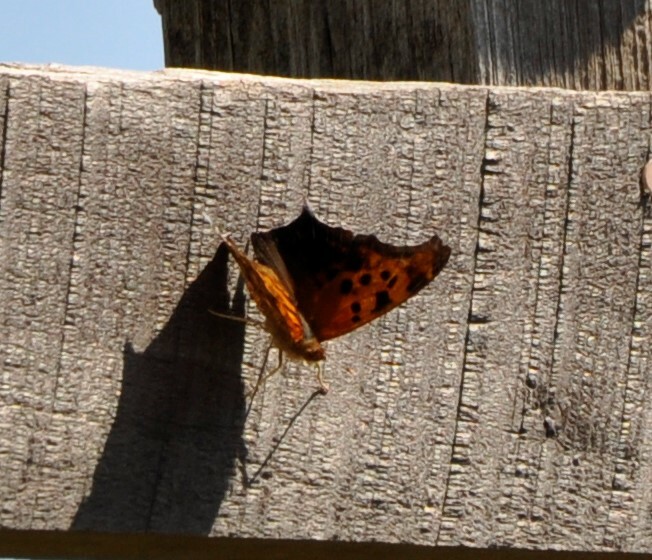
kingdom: Animalia
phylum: Arthropoda
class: Insecta
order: Lepidoptera
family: Nymphalidae
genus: Polygonia
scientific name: Polygonia interrogationis
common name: Question mark
